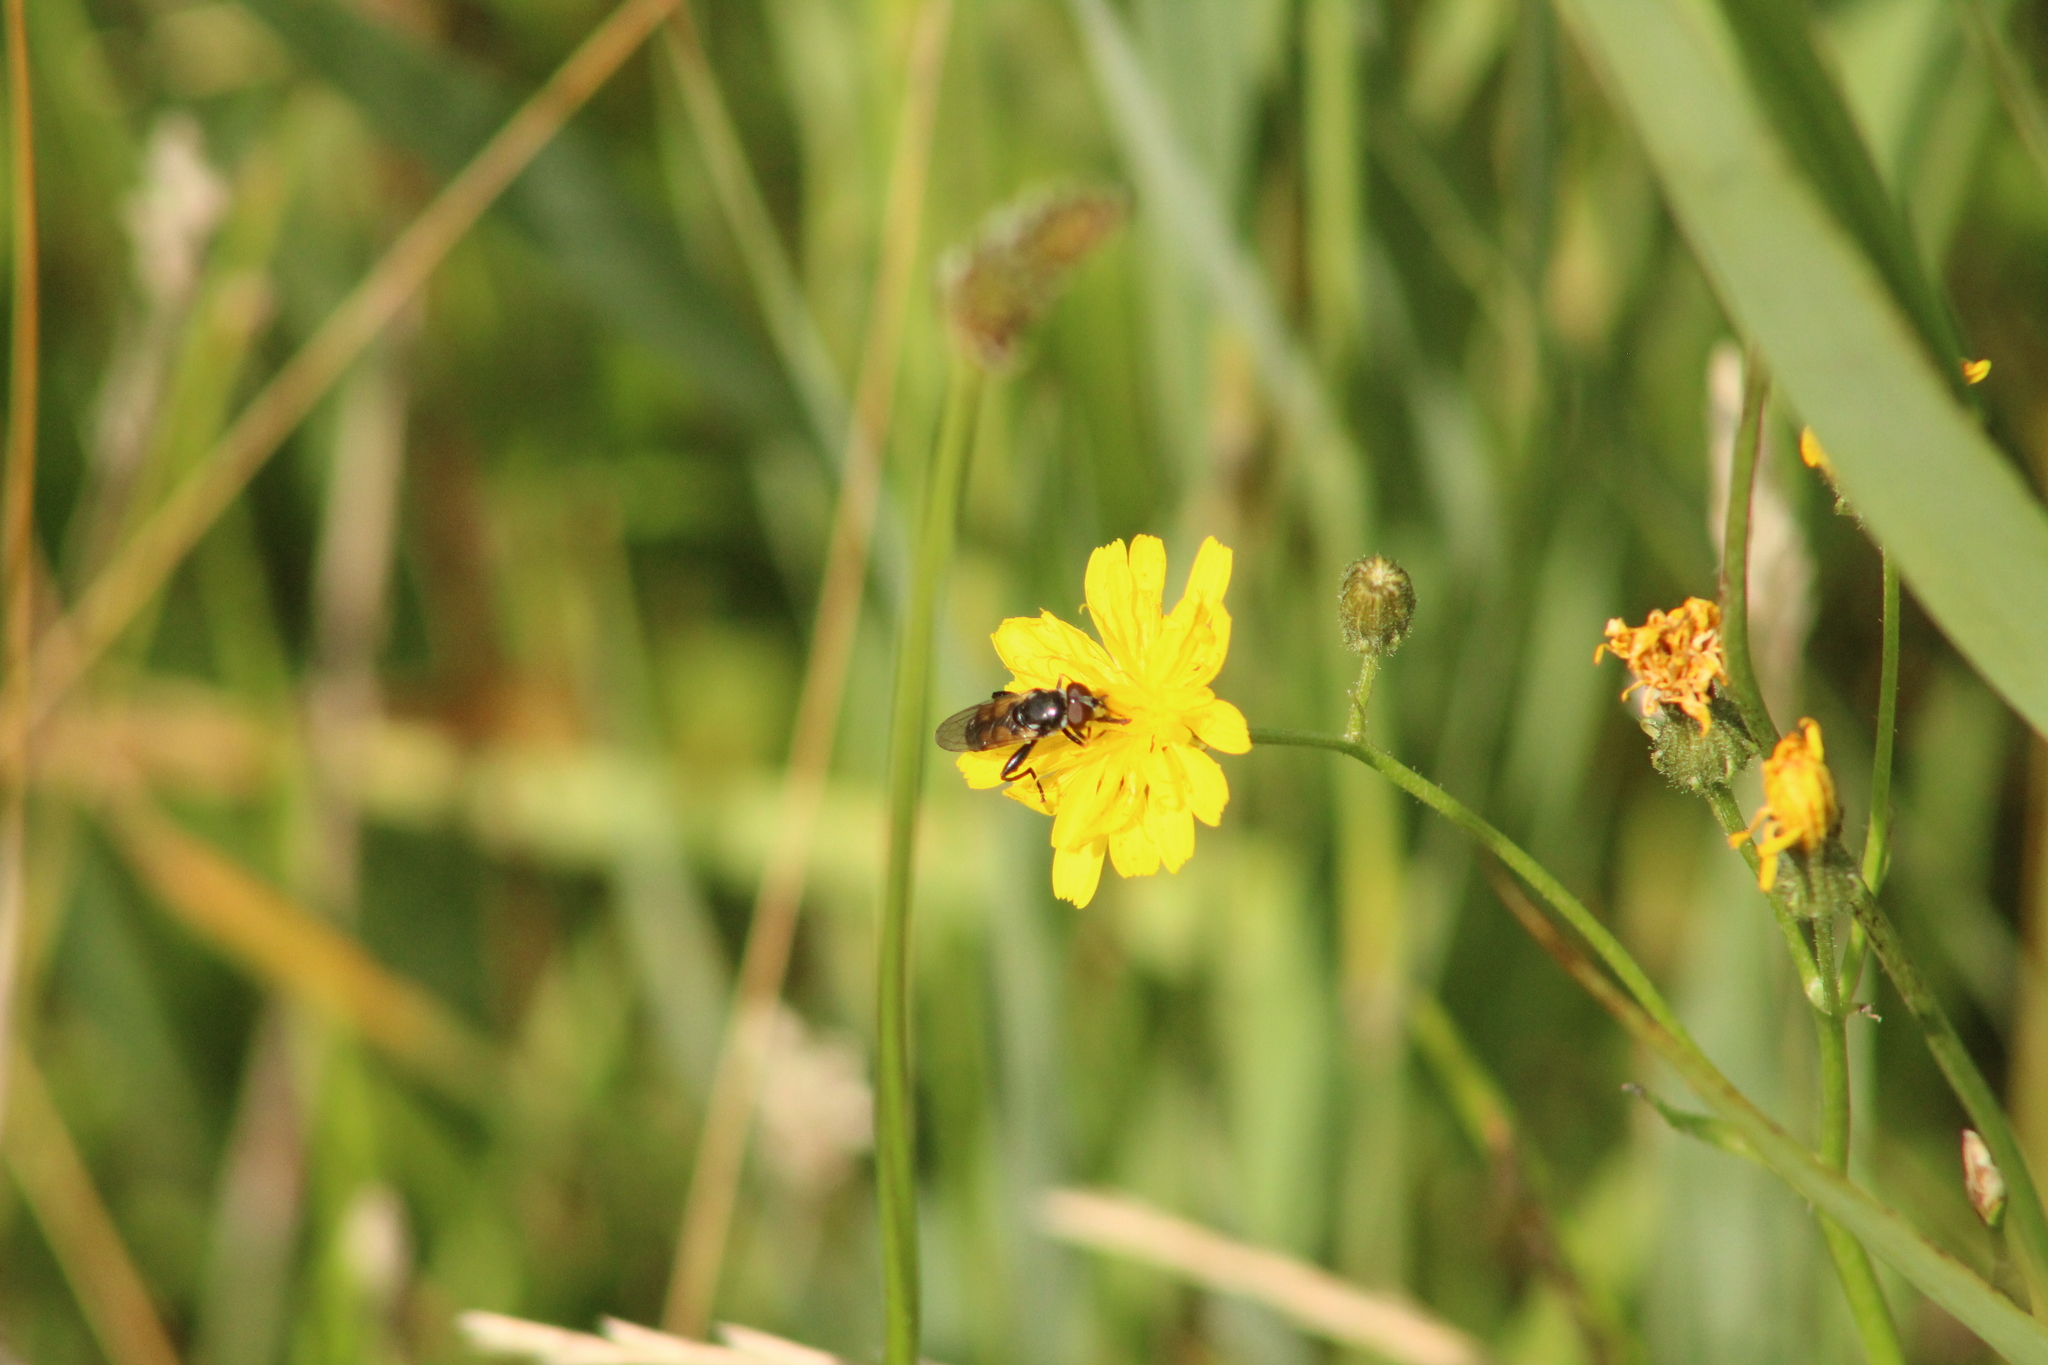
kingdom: Animalia
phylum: Arthropoda
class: Insecta
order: Diptera
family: Syrphidae
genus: Tropidia
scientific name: Tropidia scita
